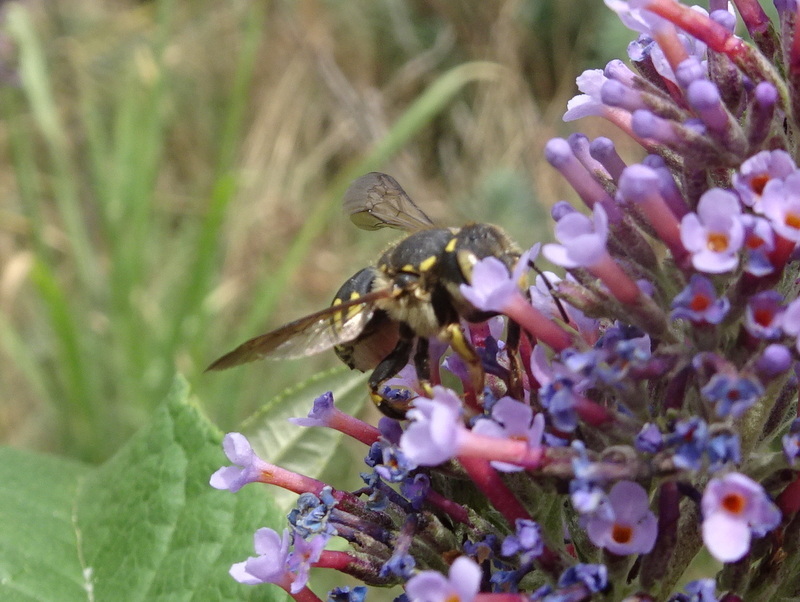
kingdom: Animalia
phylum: Arthropoda
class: Insecta
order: Hymenoptera
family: Megachilidae
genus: Anthidium
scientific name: Anthidium florentinum
